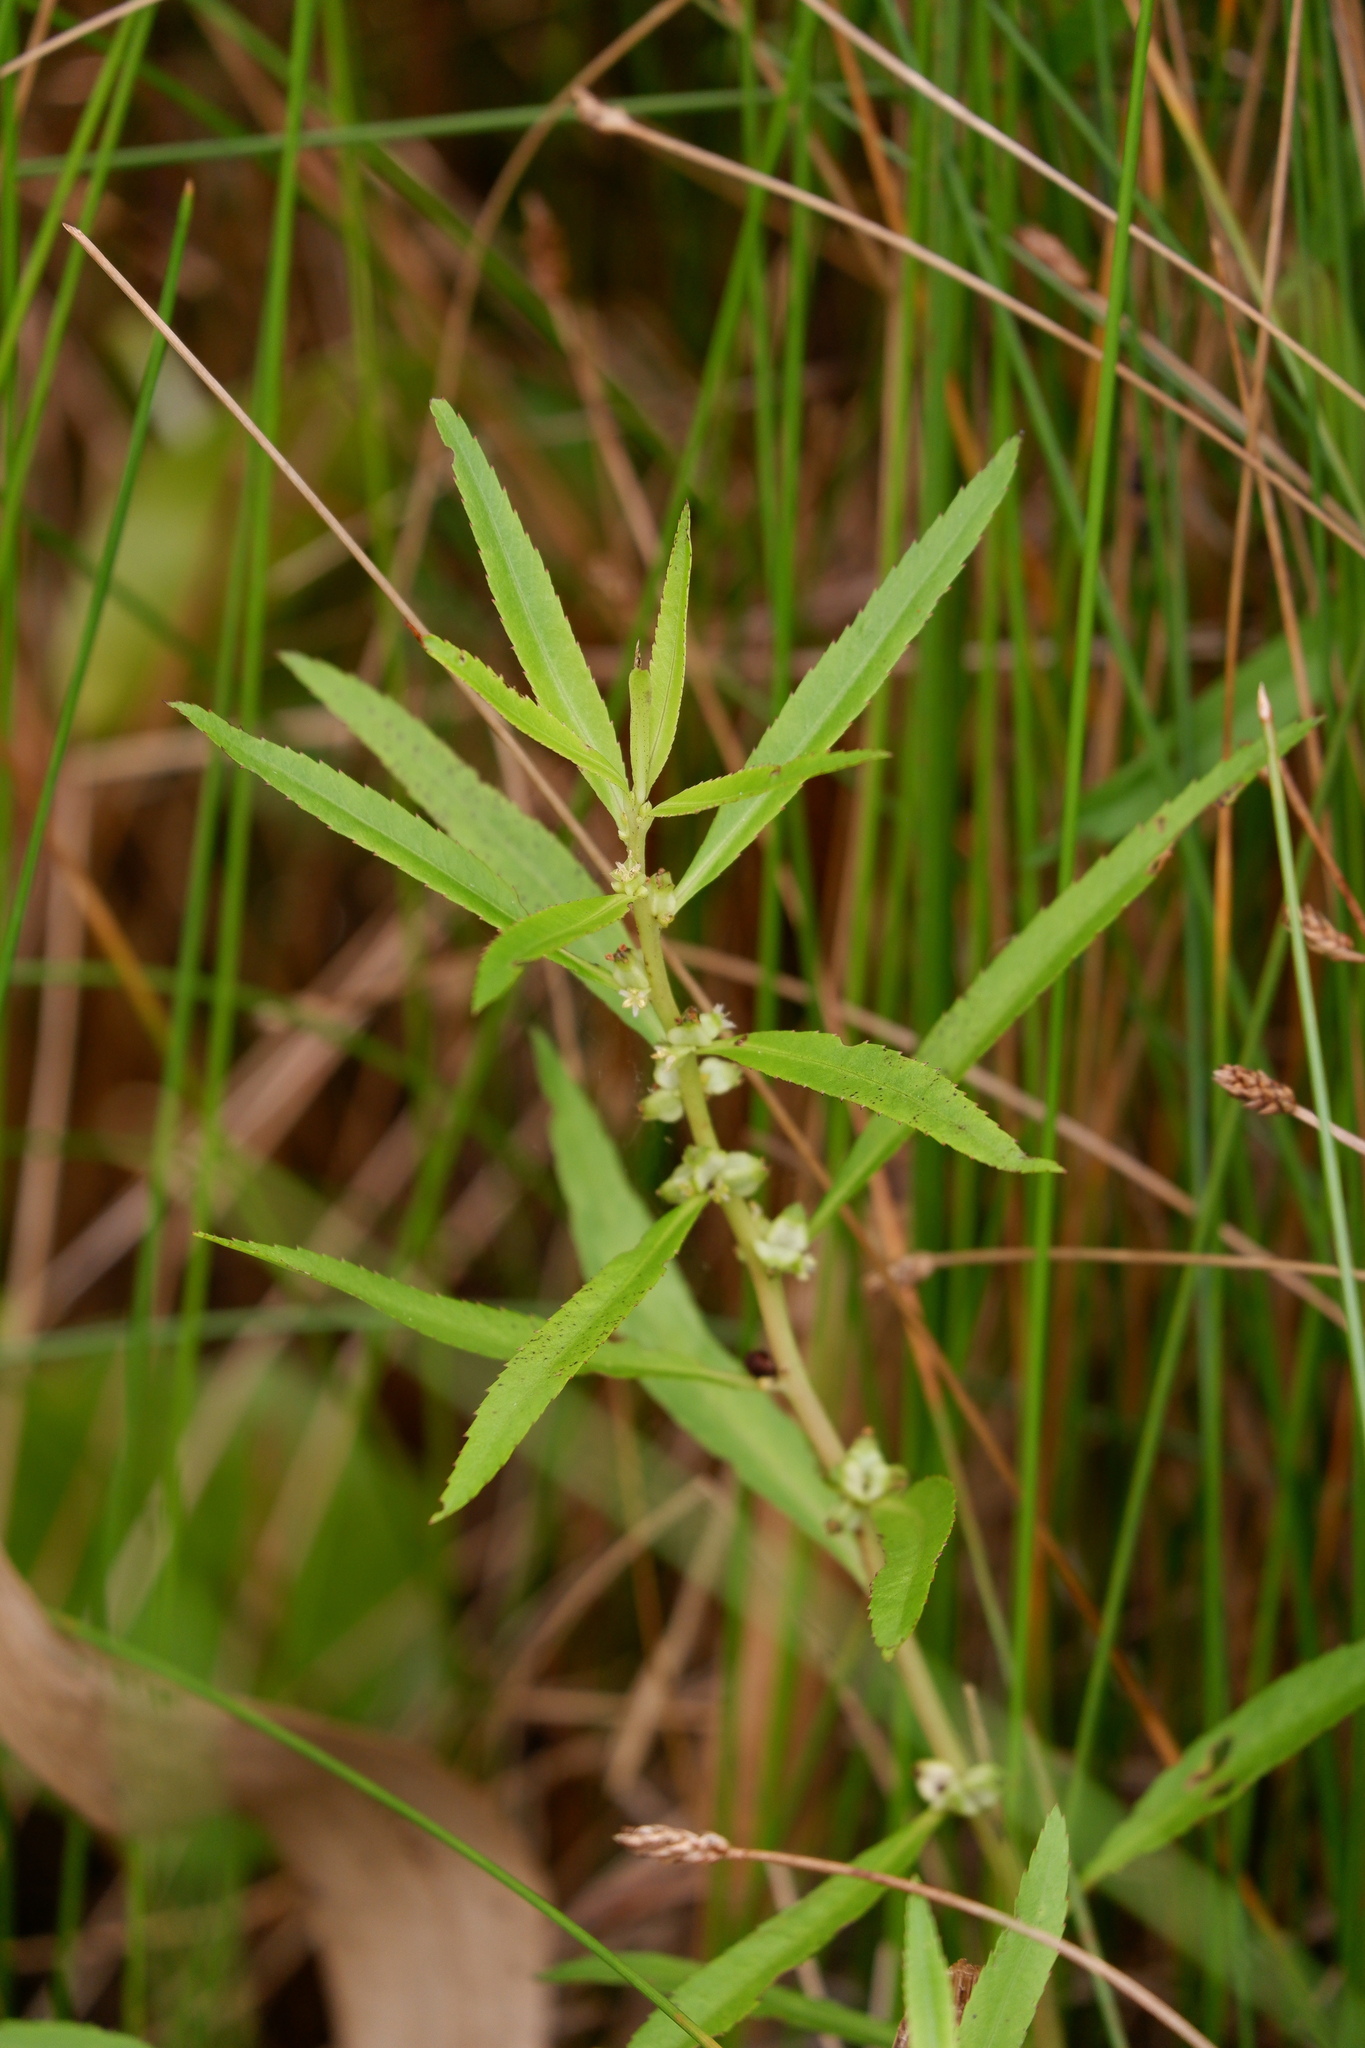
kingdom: Plantae
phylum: Tracheophyta
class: Magnoliopsida
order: Saxifragales
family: Haloragaceae
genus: Proserpinaca
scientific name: Proserpinaca palustris
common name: Marsh mermaidweed
